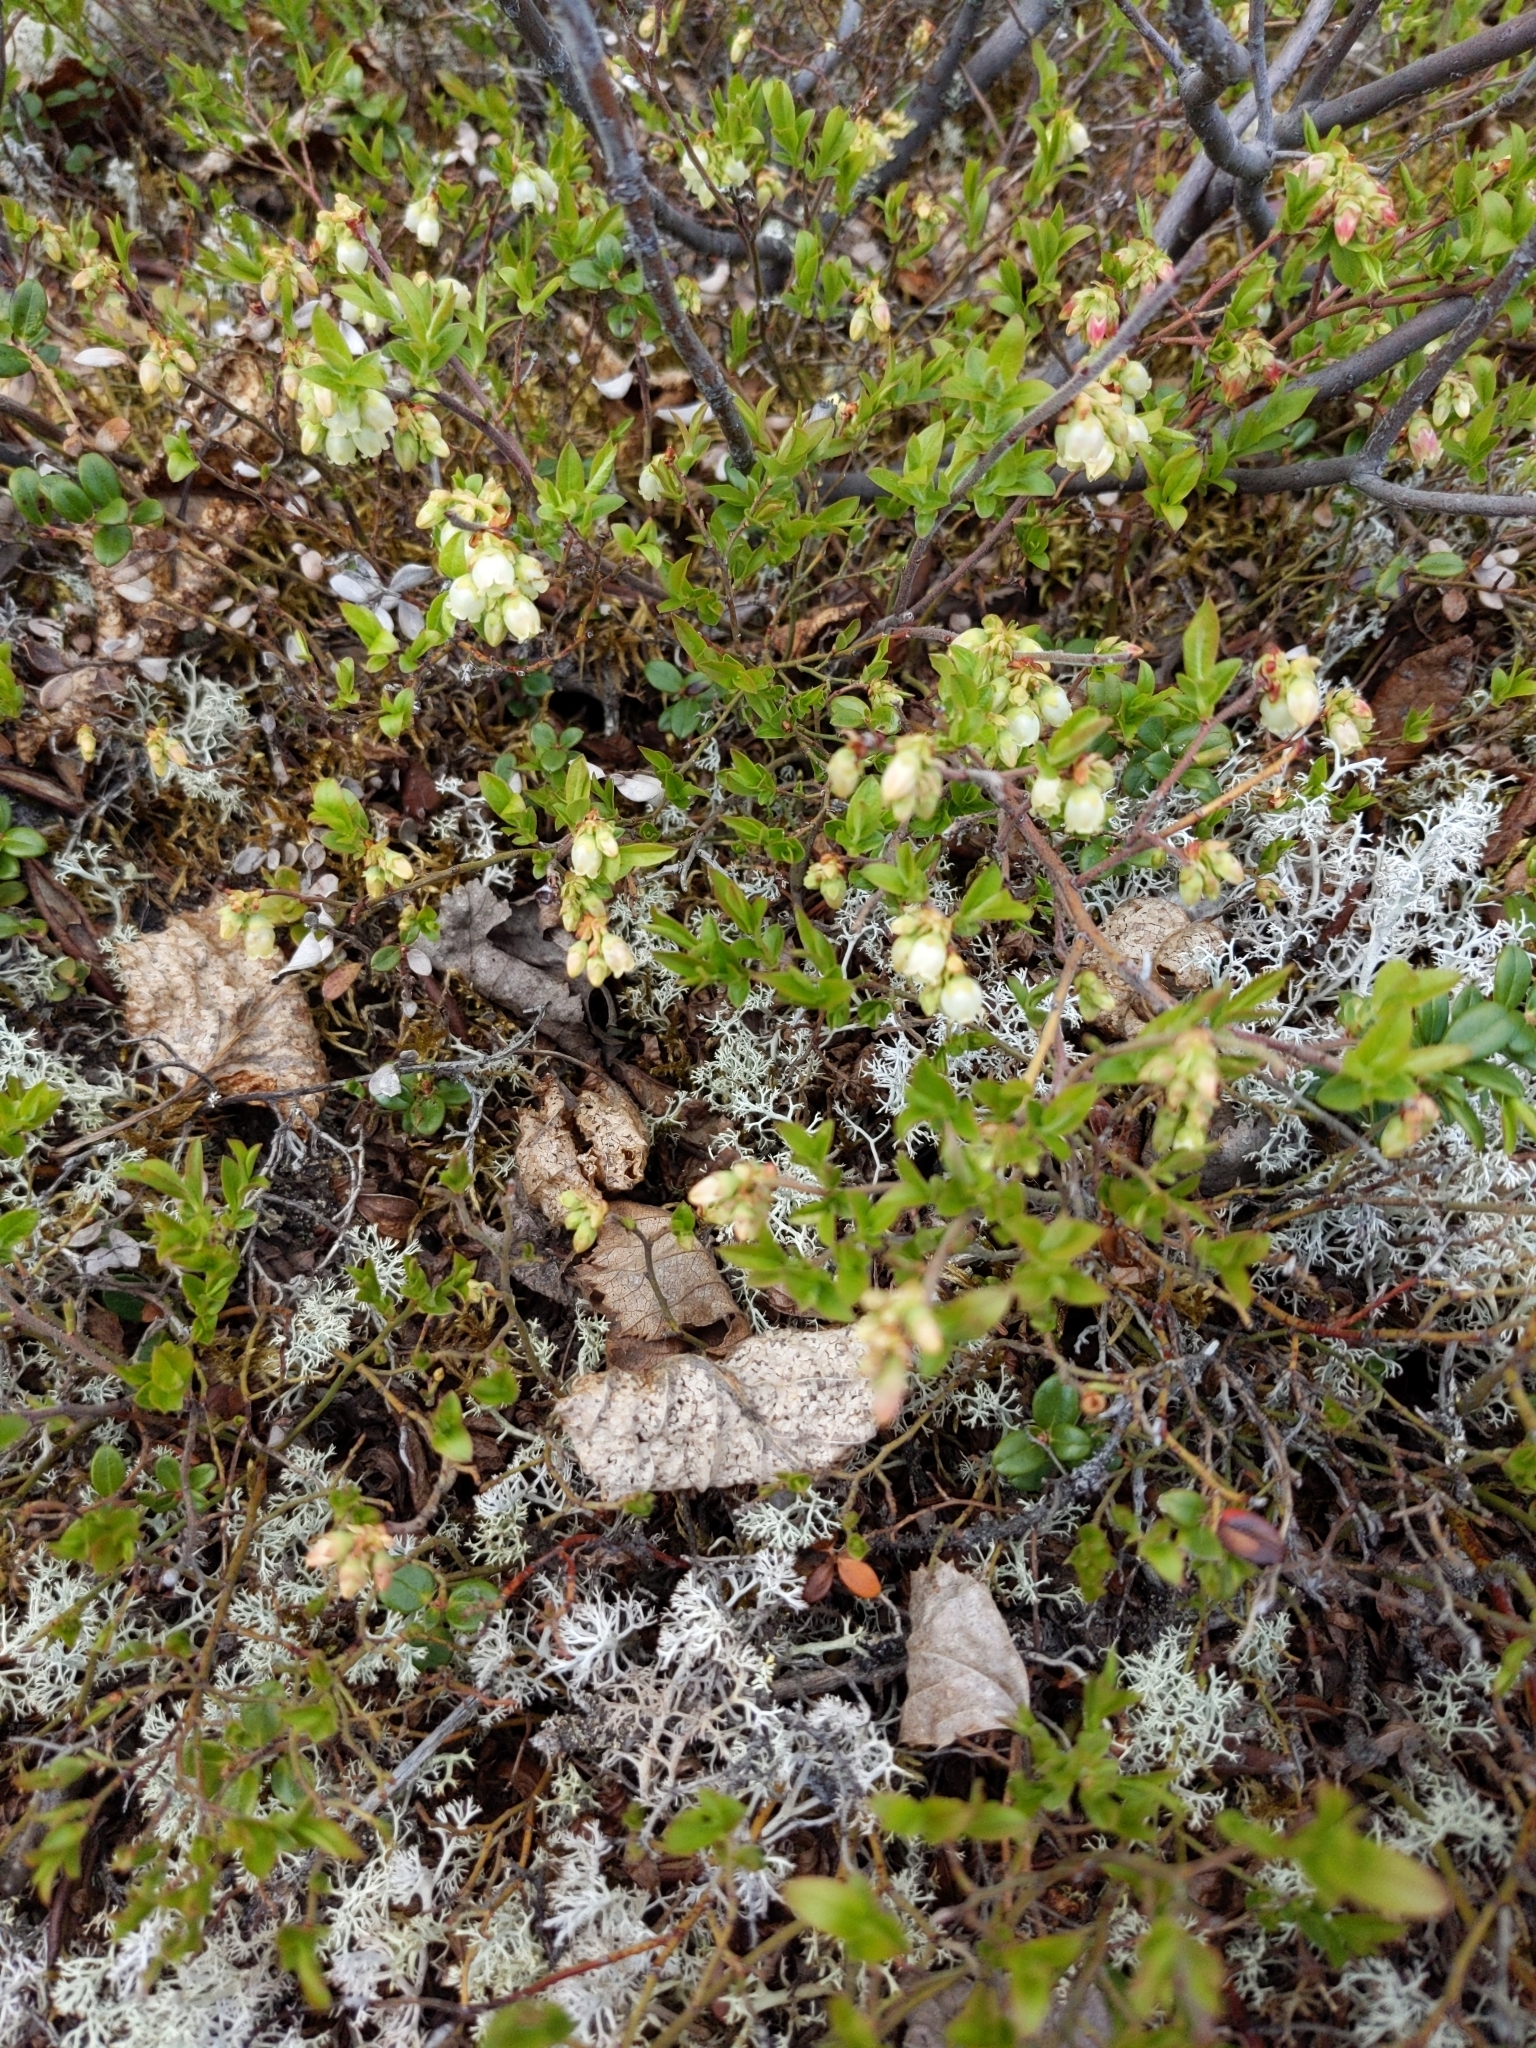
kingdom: Plantae
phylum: Tracheophyta
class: Magnoliopsida
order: Ericales
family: Ericaceae
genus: Vaccinium
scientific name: Vaccinium boreale
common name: Northern blueberry
